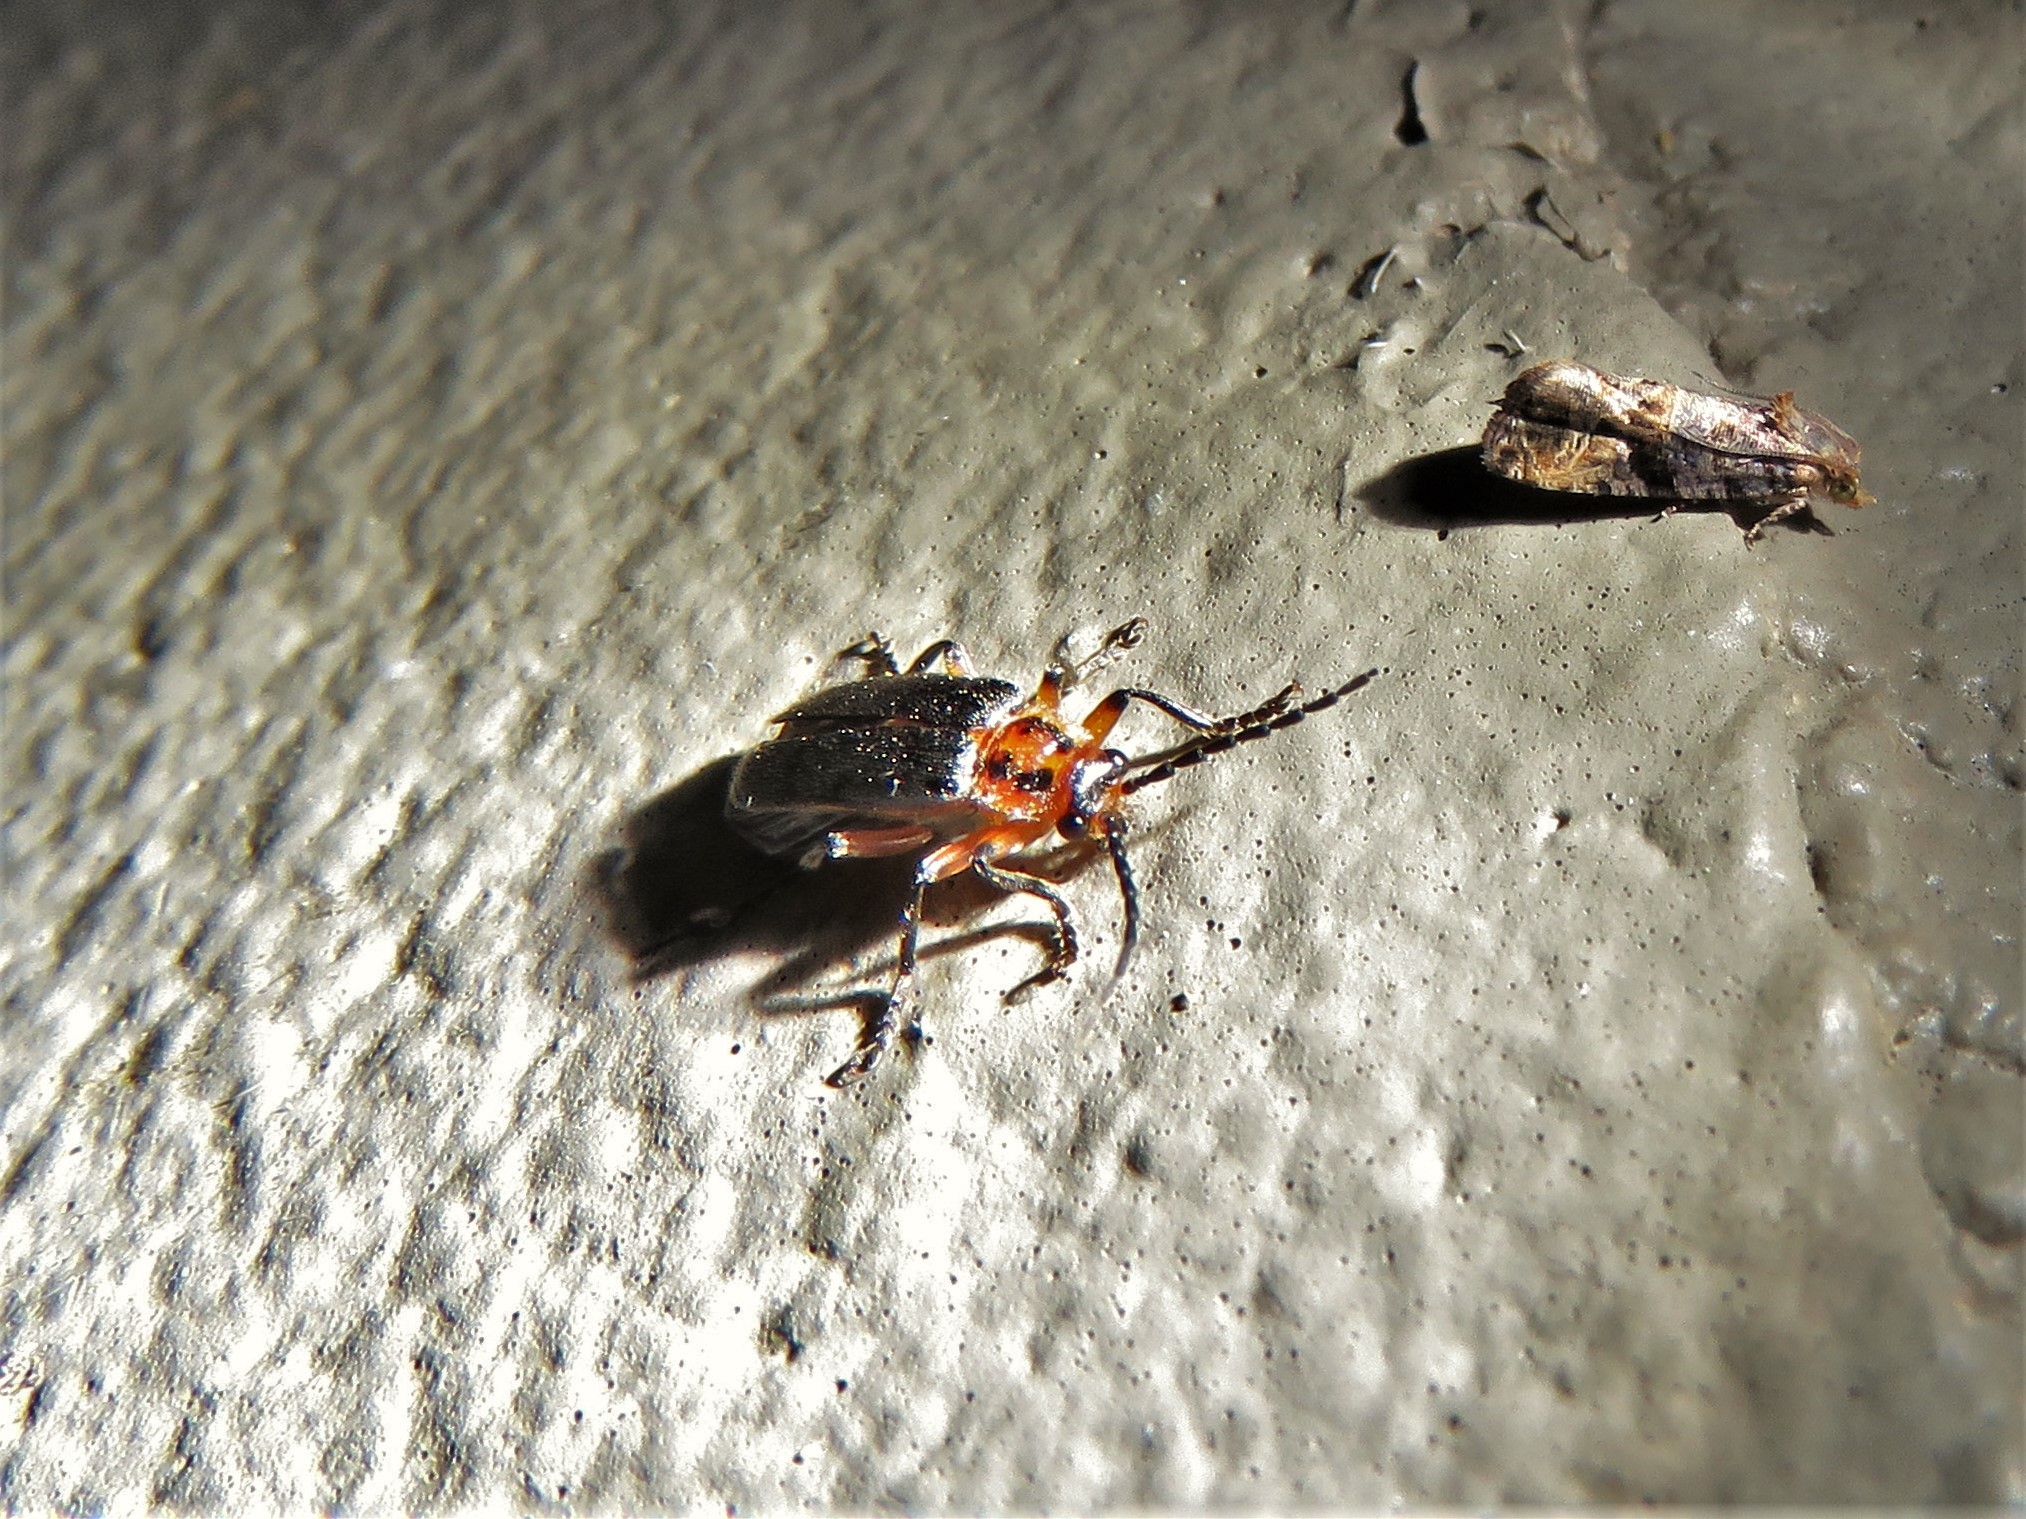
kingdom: Animalia
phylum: Arthropoda
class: Insecta
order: Coleoptera
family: Cantharidae
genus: Atalantycha
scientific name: Atalantycha bilineata
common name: Two-lined leatherwing
